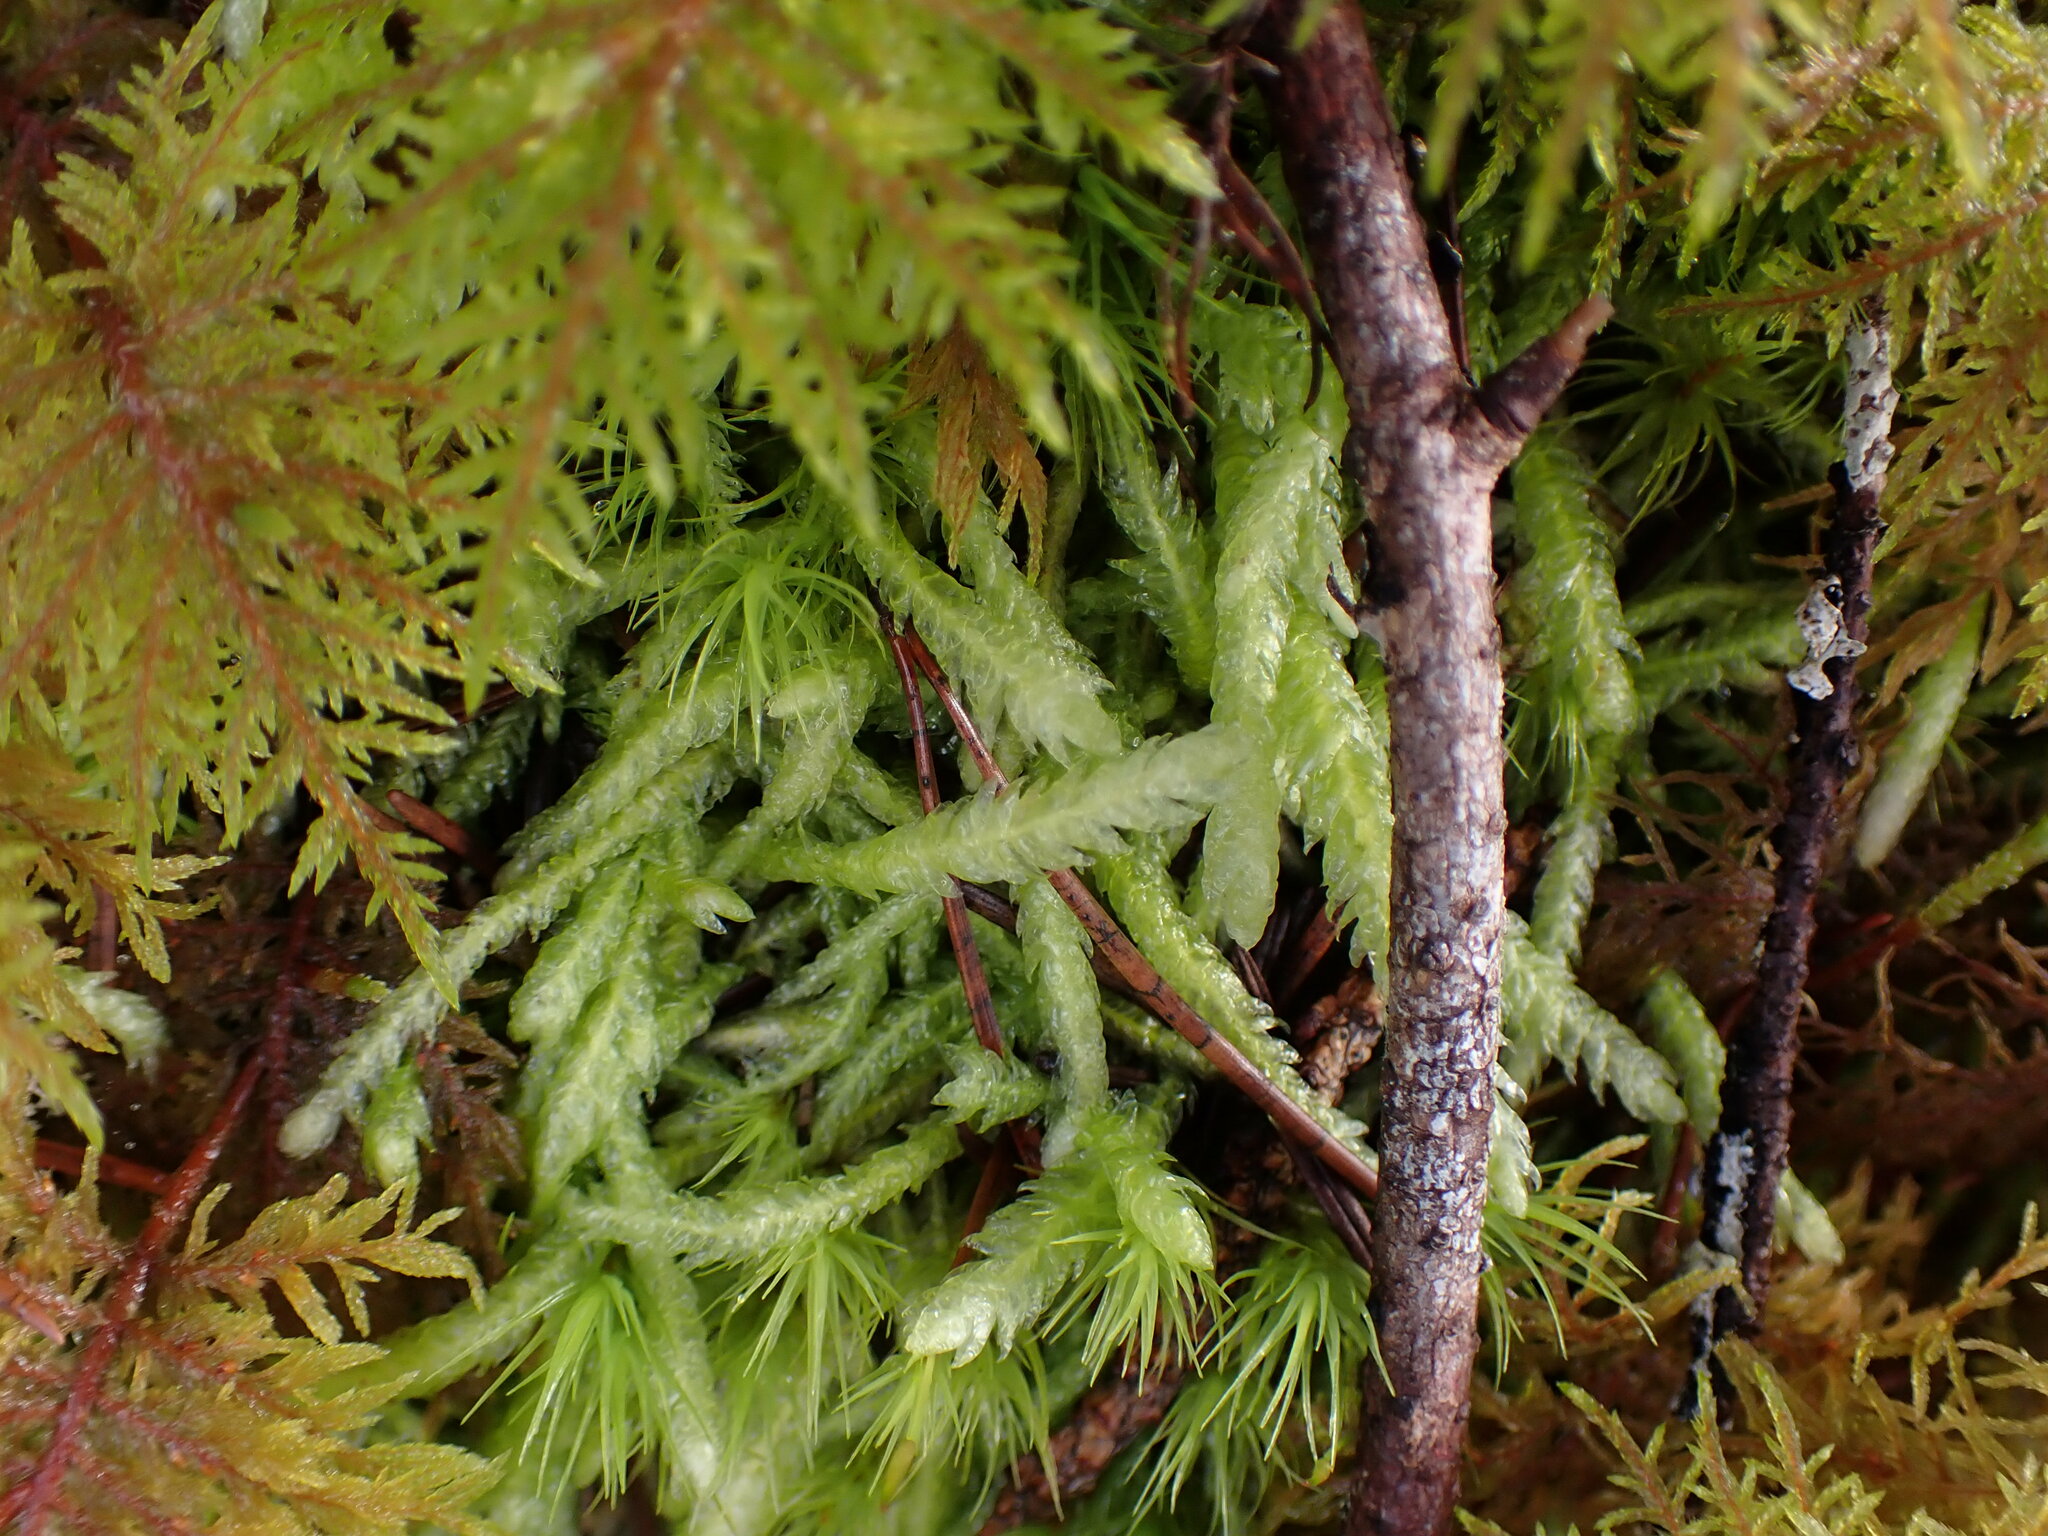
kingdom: Plantae
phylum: Bryophyta
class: Bryopsida
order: Hypnales
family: Plagiotheciaceae
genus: Plagiothecium
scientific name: Plagiothecium undulatum
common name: Waved silk-moss
